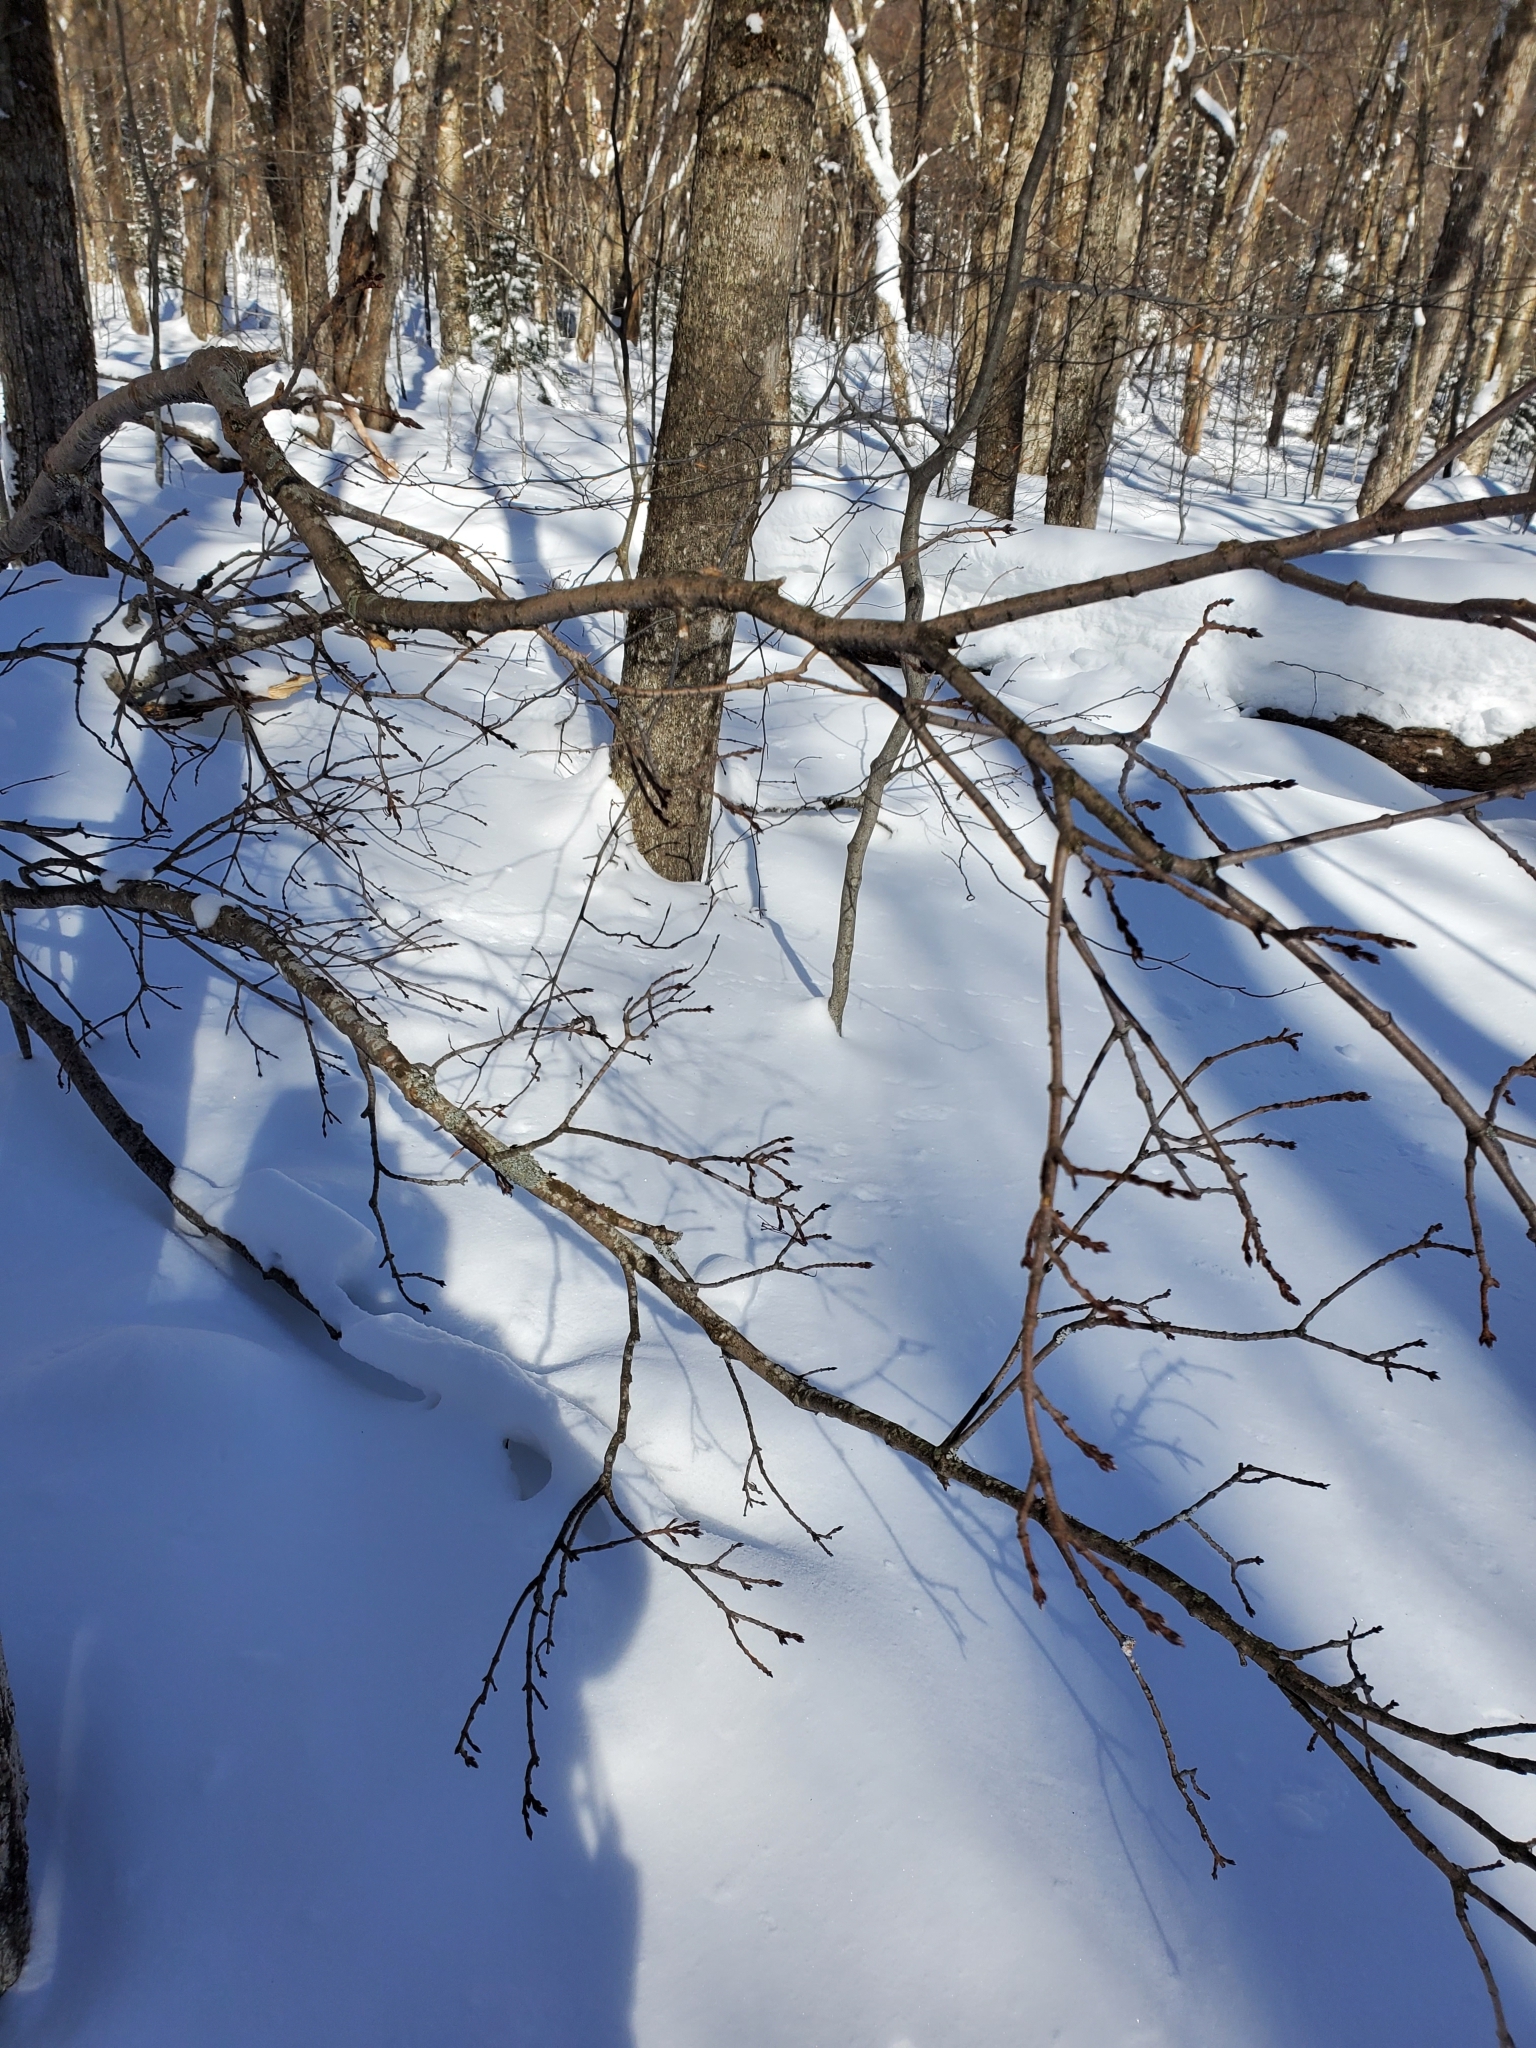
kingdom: Plantae
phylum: Tracheophyta
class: Magnoliopsida
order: Sapindales
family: Sapindaceae
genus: Acer
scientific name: Acer saccharum
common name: Sugar maple
